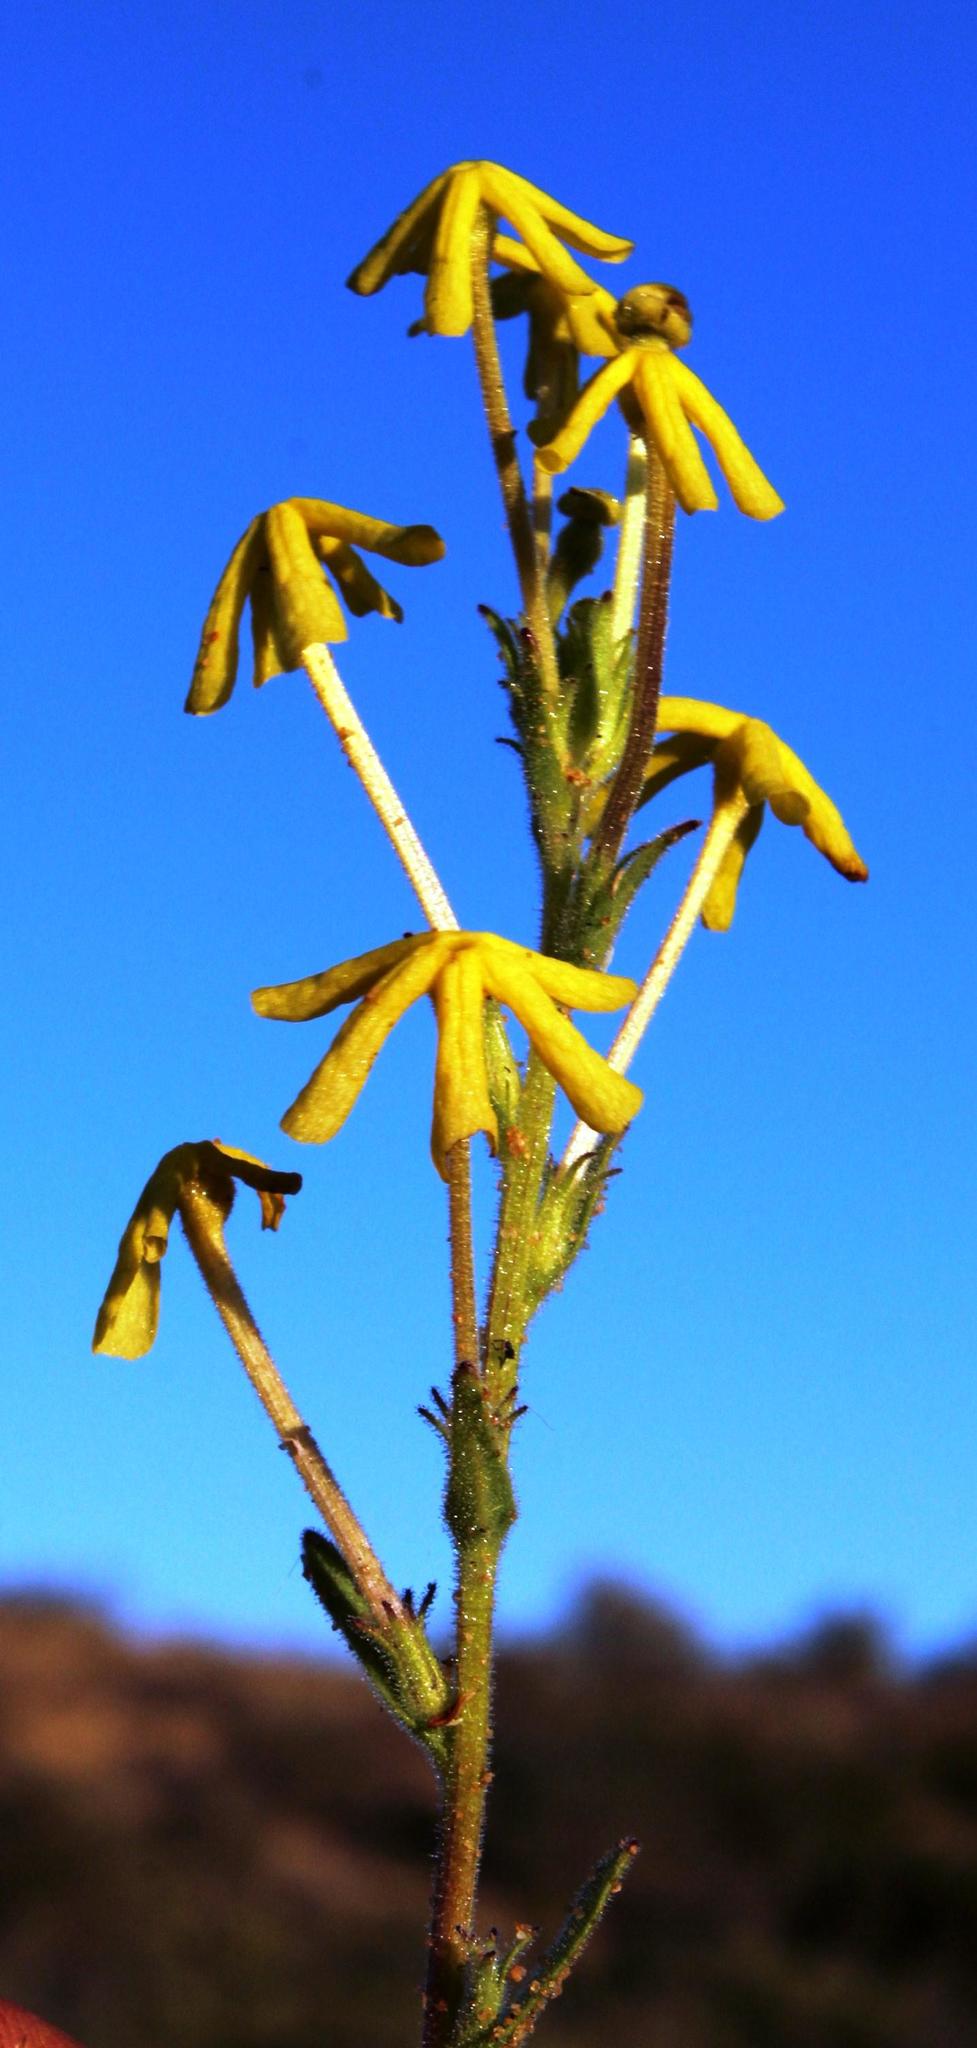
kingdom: Plantae
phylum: Tracheophyta
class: Magnoliopsida
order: Lamiales
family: Scrophulariaceae
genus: Lyperia
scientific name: Lyperia tristis
